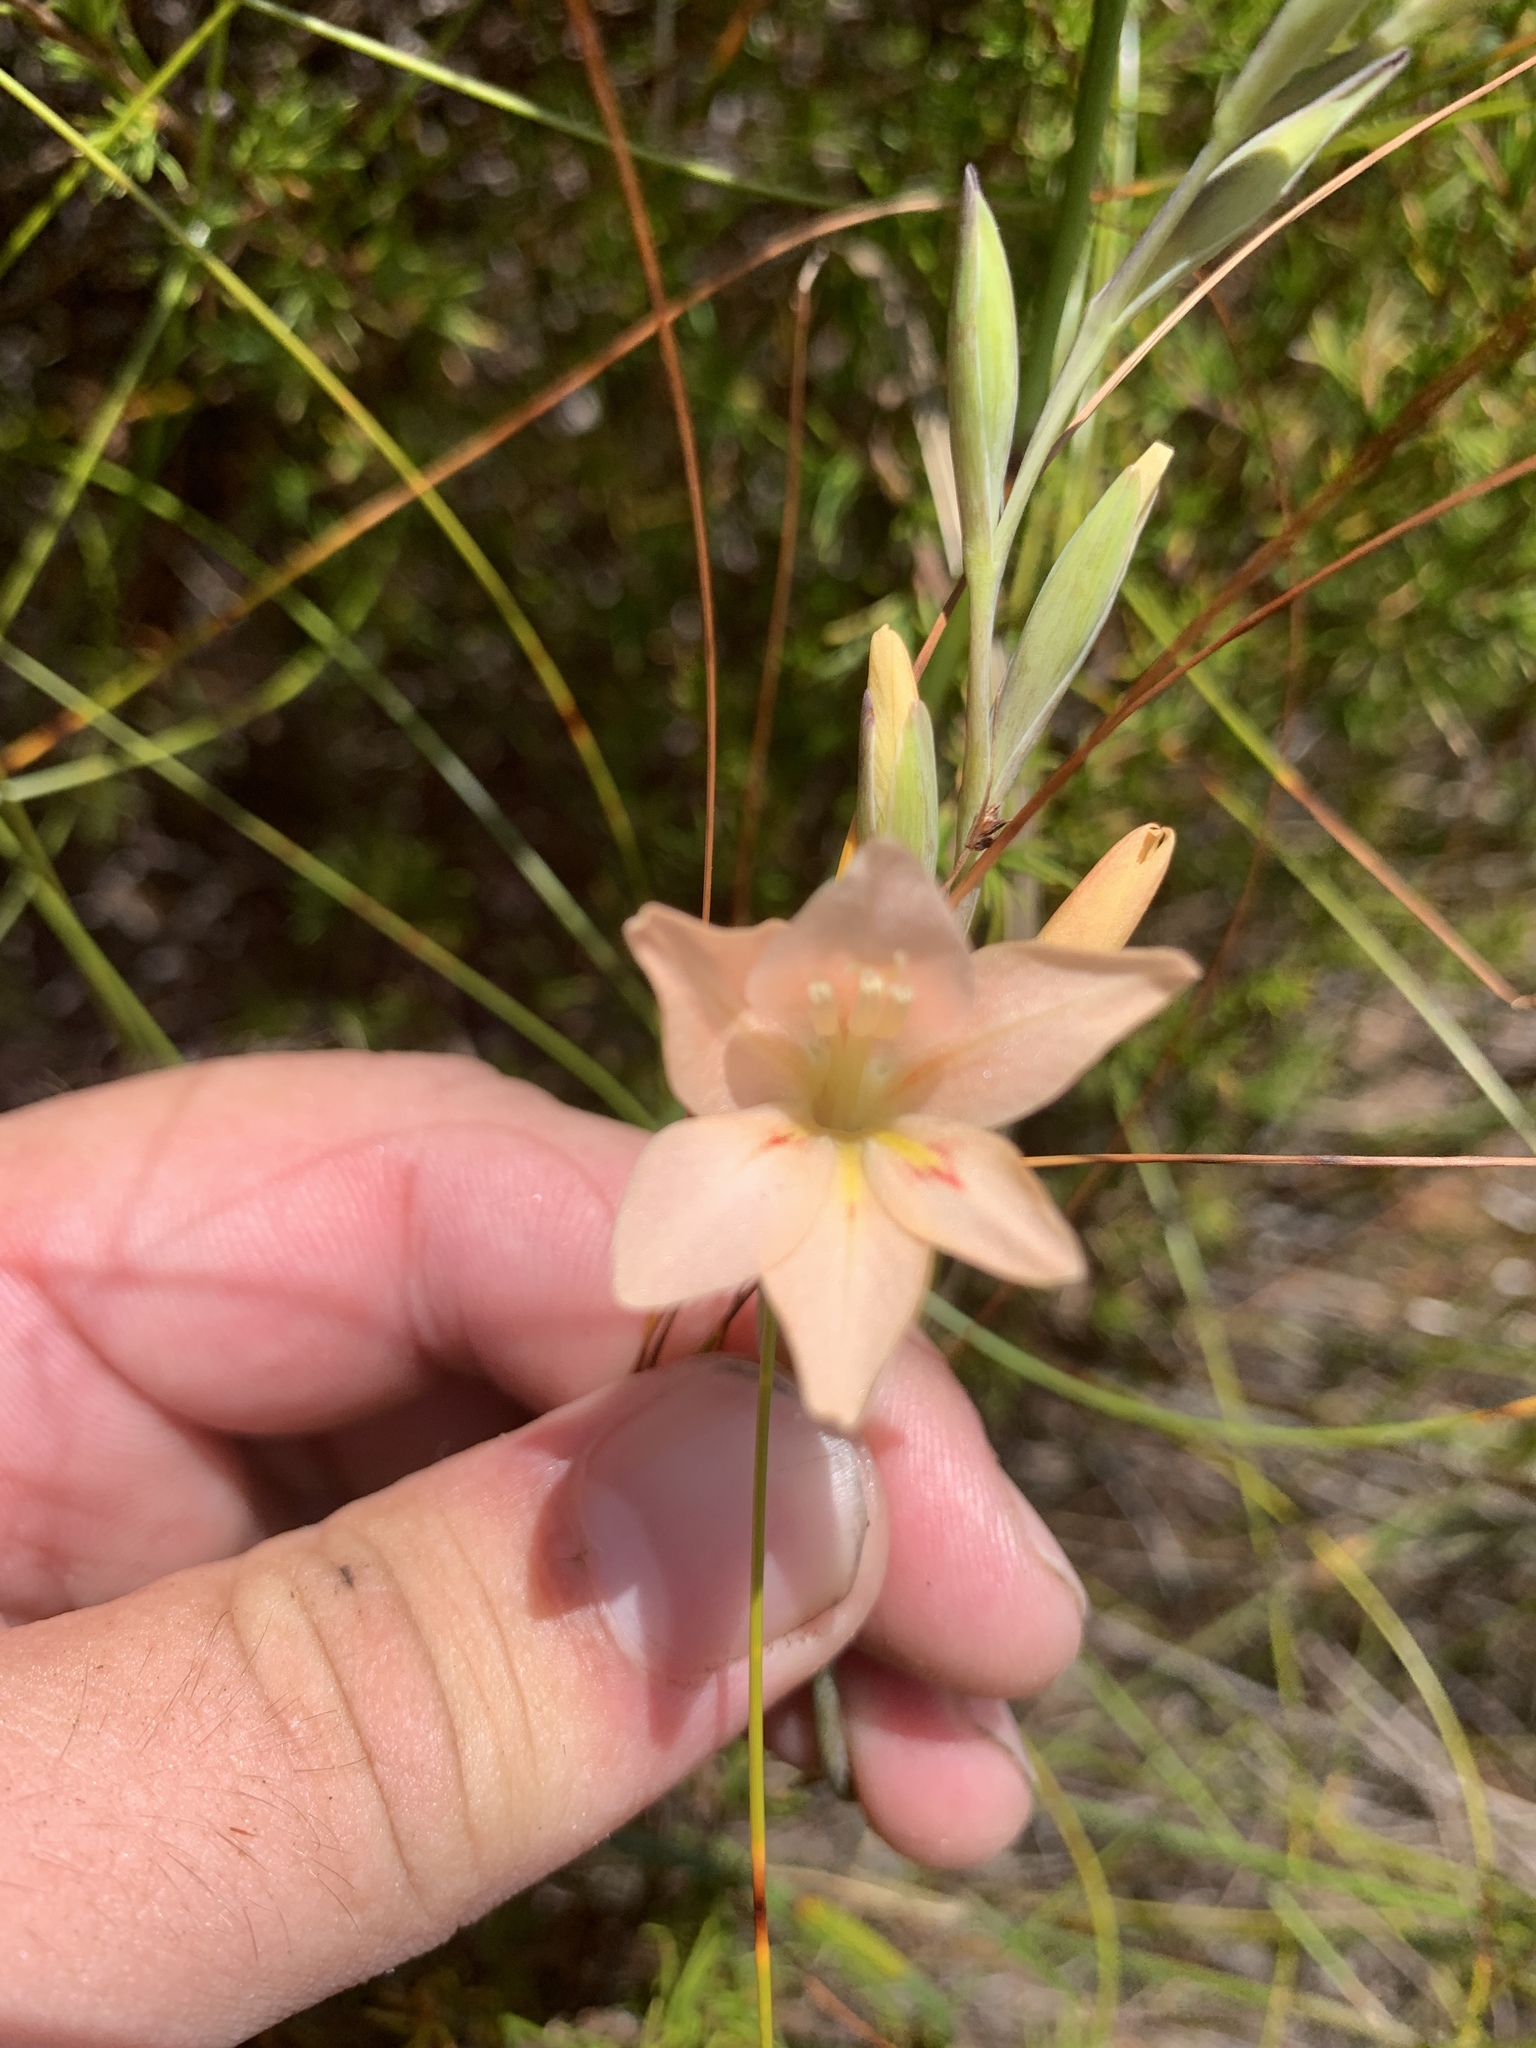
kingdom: Plantae
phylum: Tracheophyta
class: Liliopsida
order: Asparagales
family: Iridaceae
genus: Gladiolus
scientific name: Gladiolus monticola
